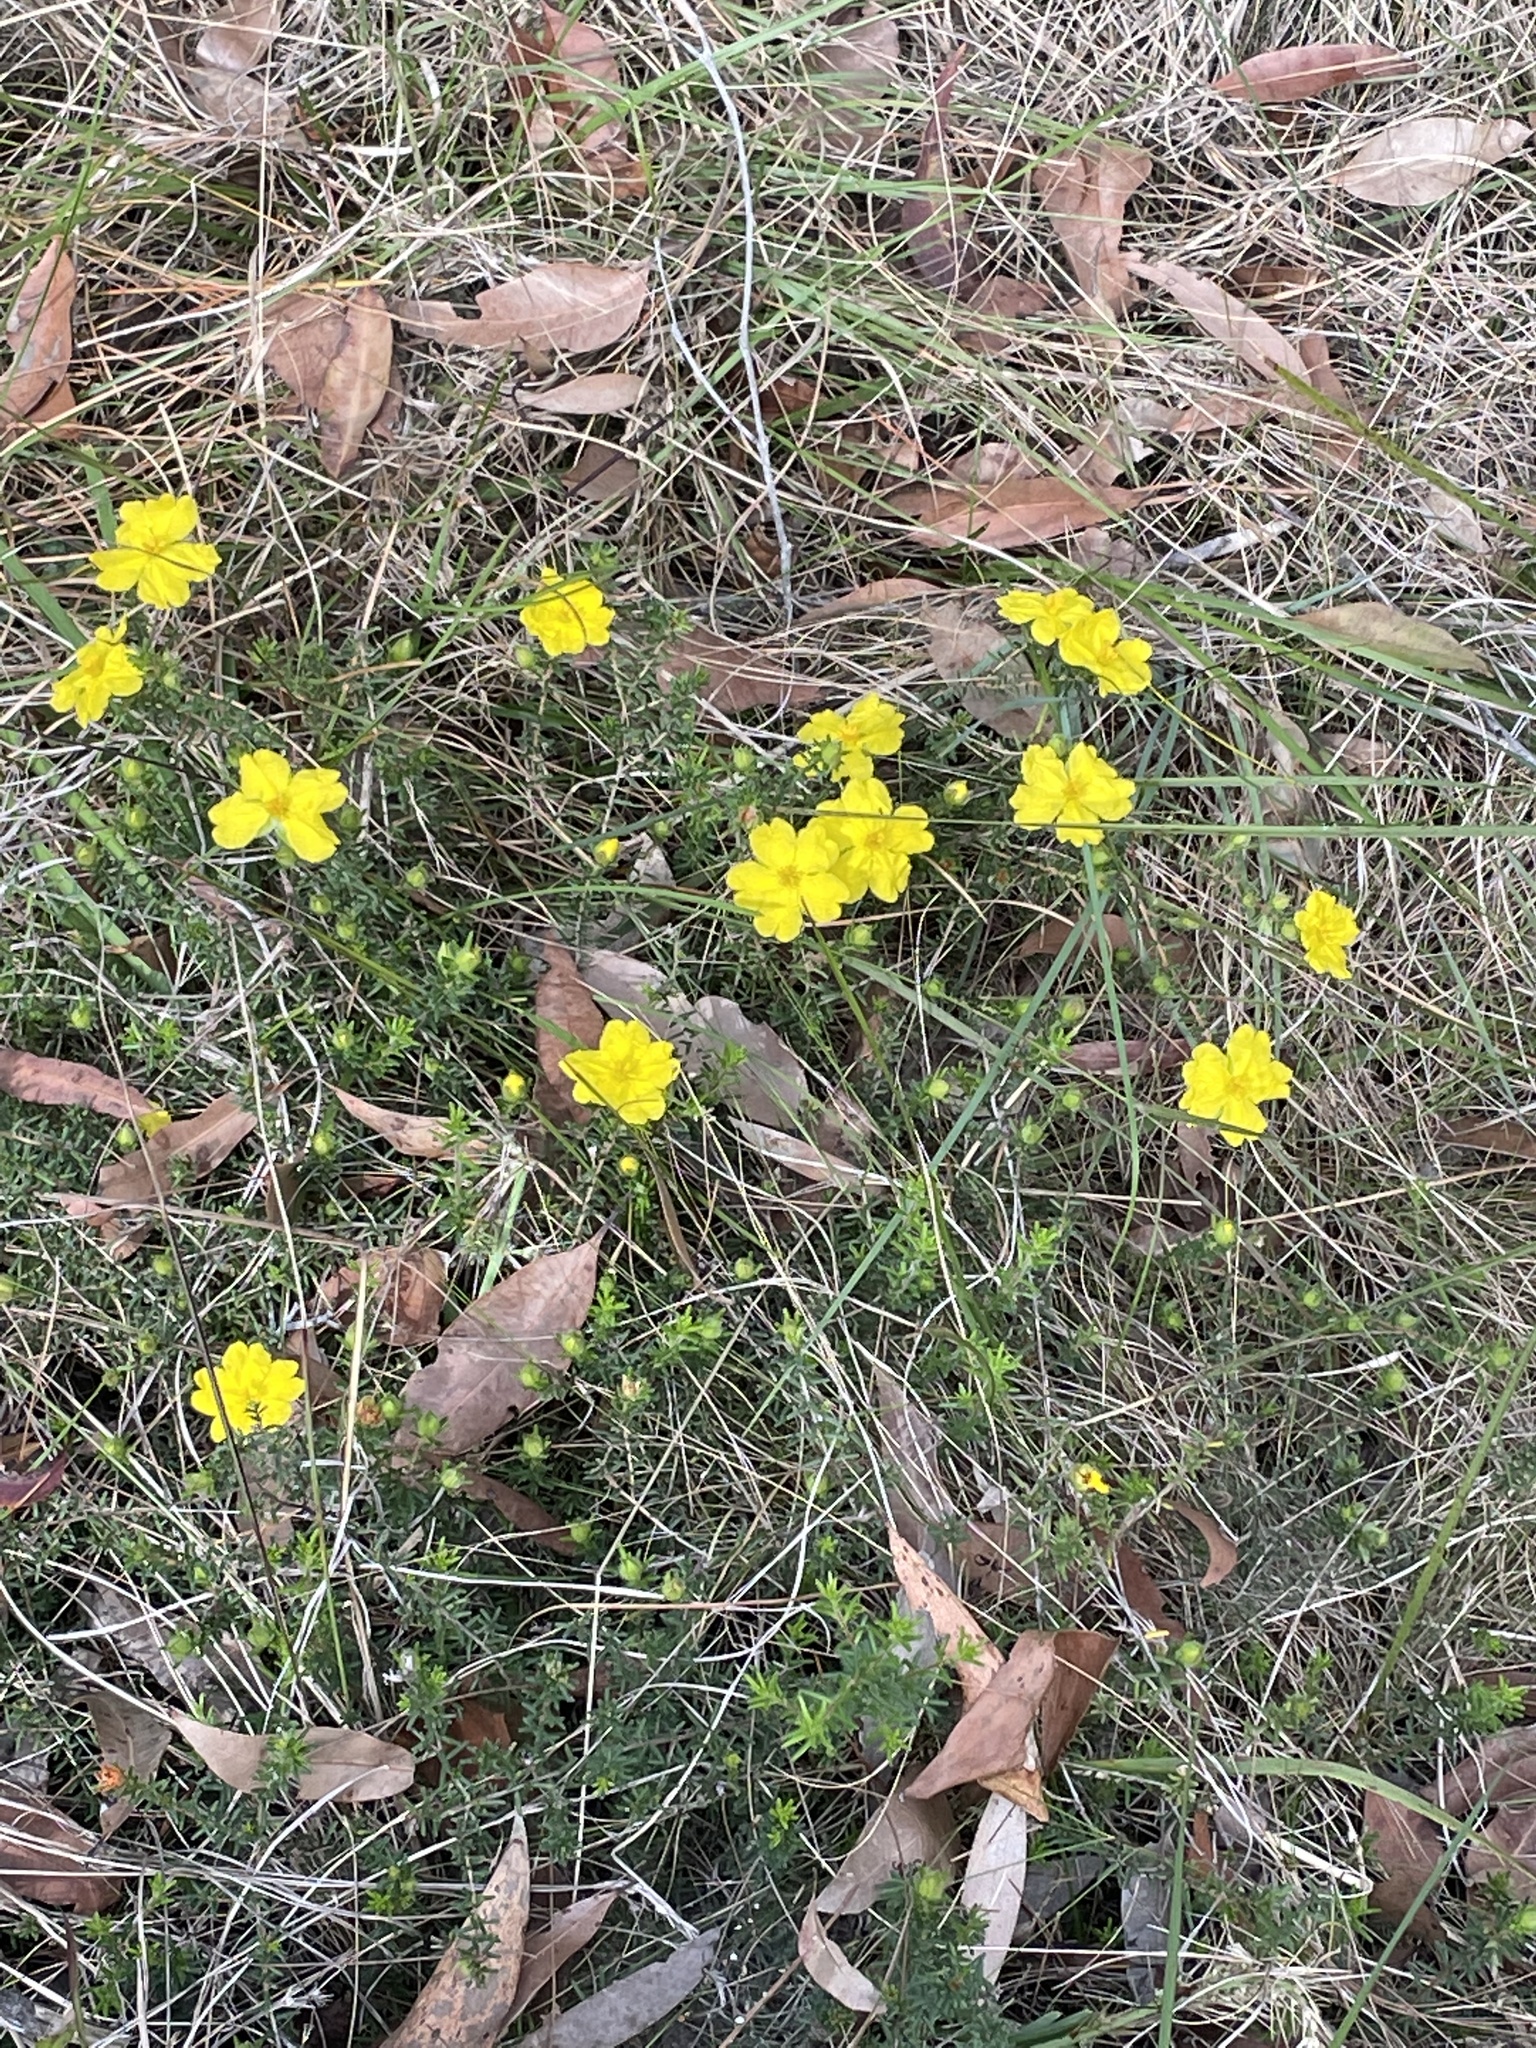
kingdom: Plantae
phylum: Tracheophyta
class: Magnoliopsida
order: Dilleniales
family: Dilleniaceae
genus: Hibbertia
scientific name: Hibbertia vestita
